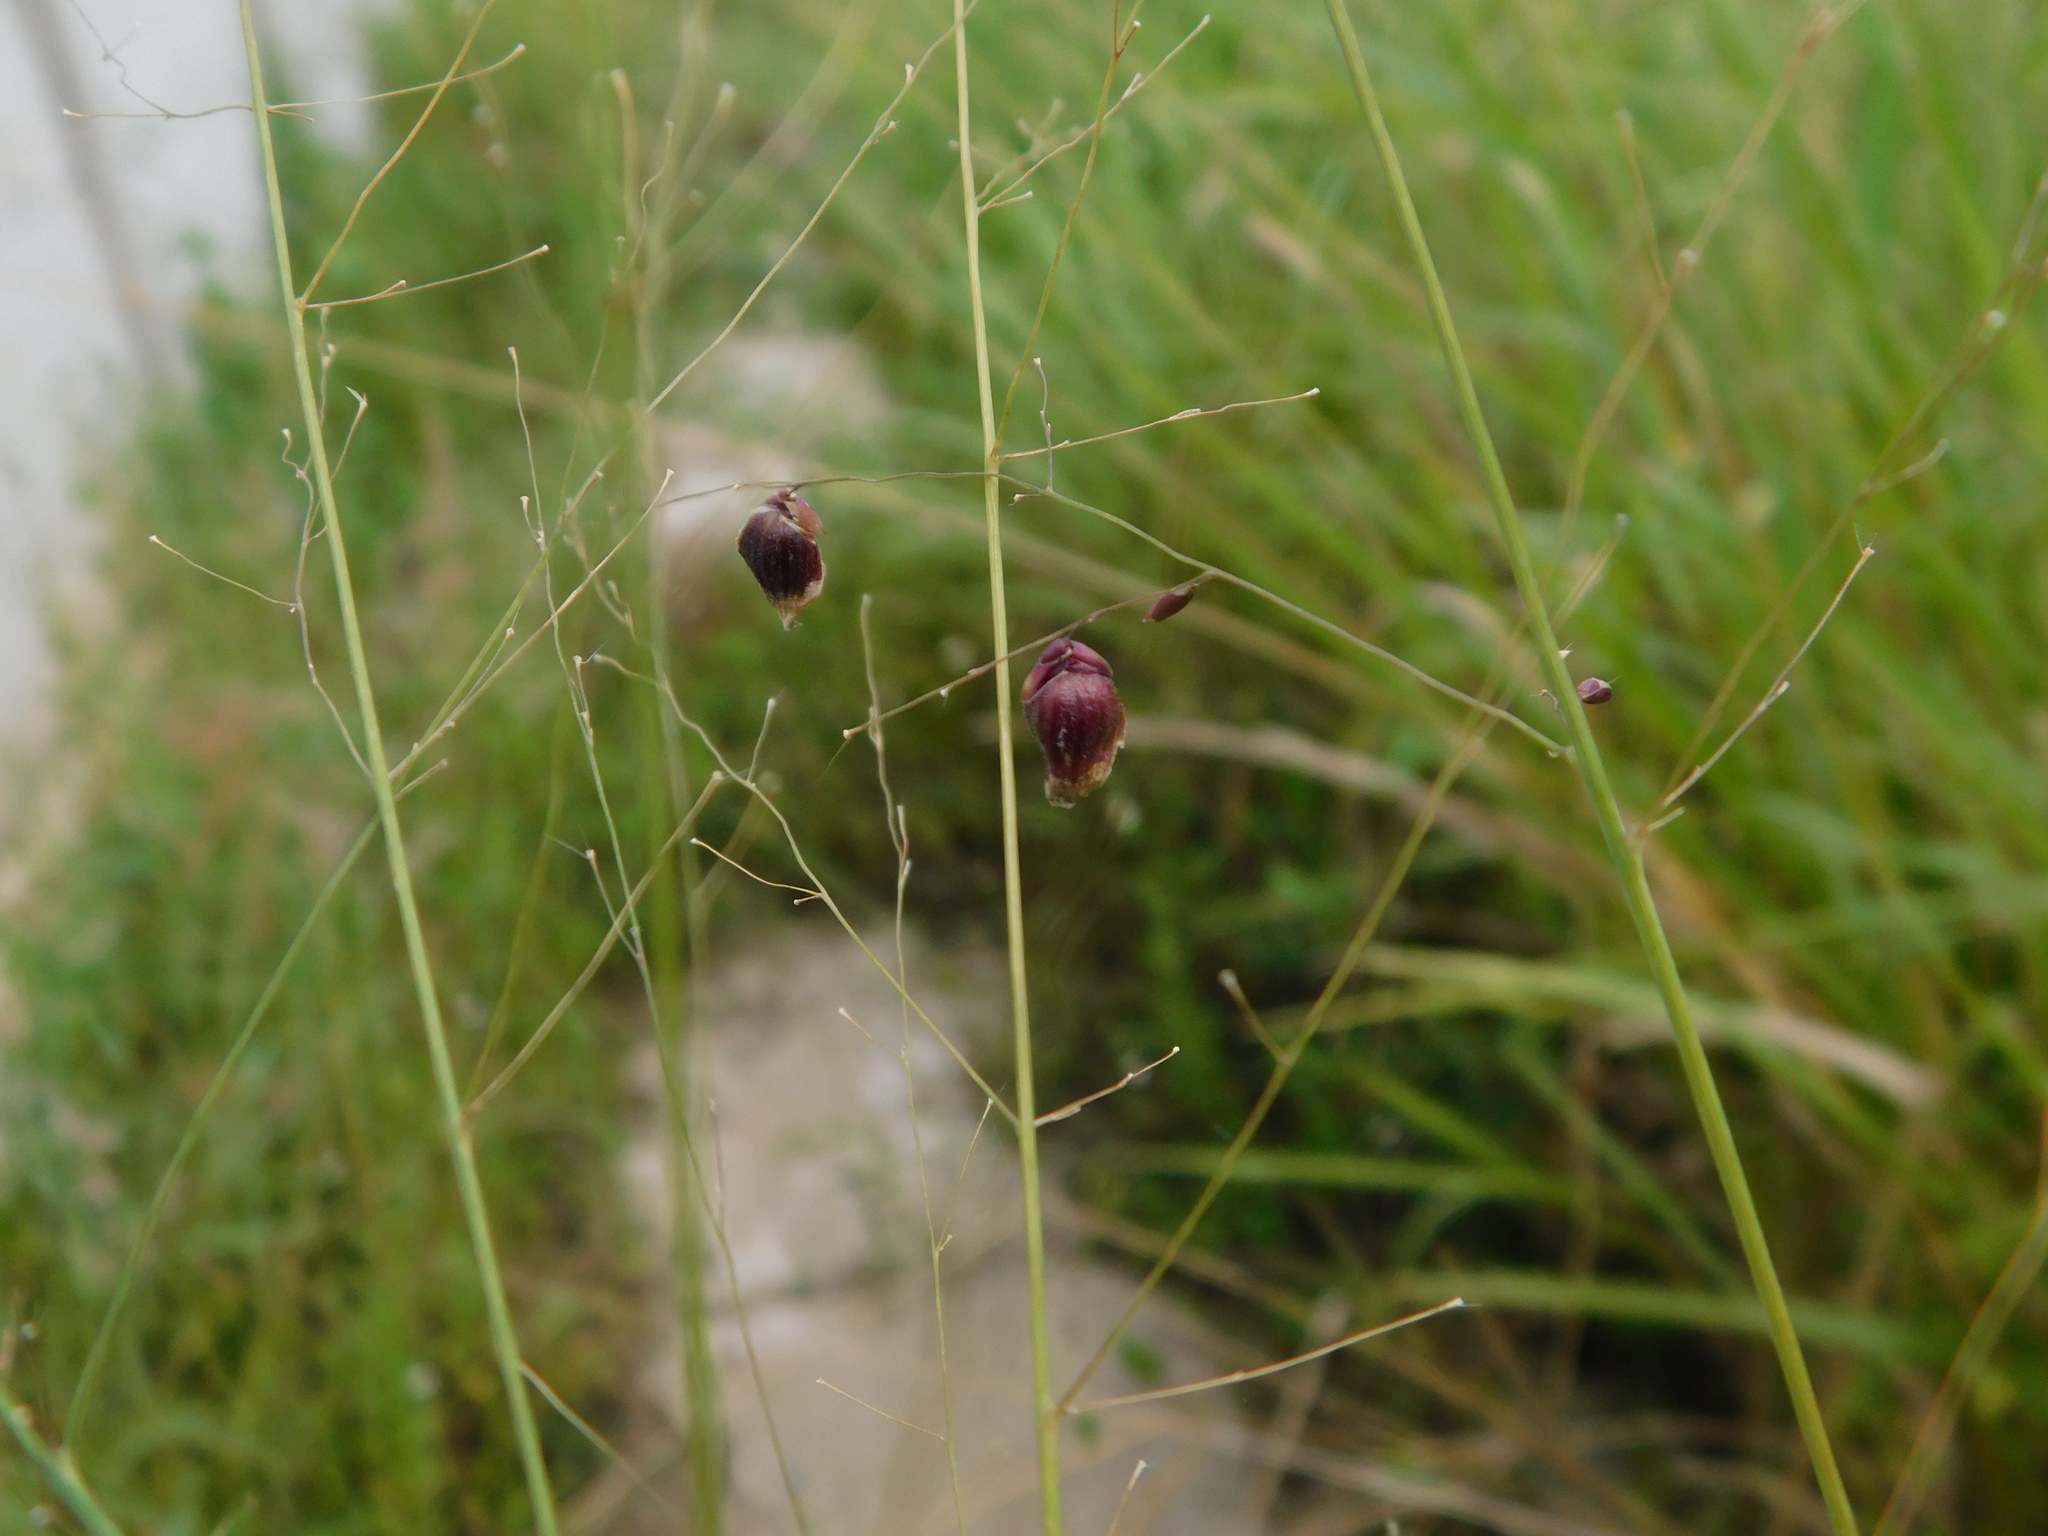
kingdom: Plantae
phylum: Tracheophyta
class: Liliopsida
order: Poales
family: Poaceae
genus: Megathyrsus
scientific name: Megathyrsus maximus
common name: Guineagrass
